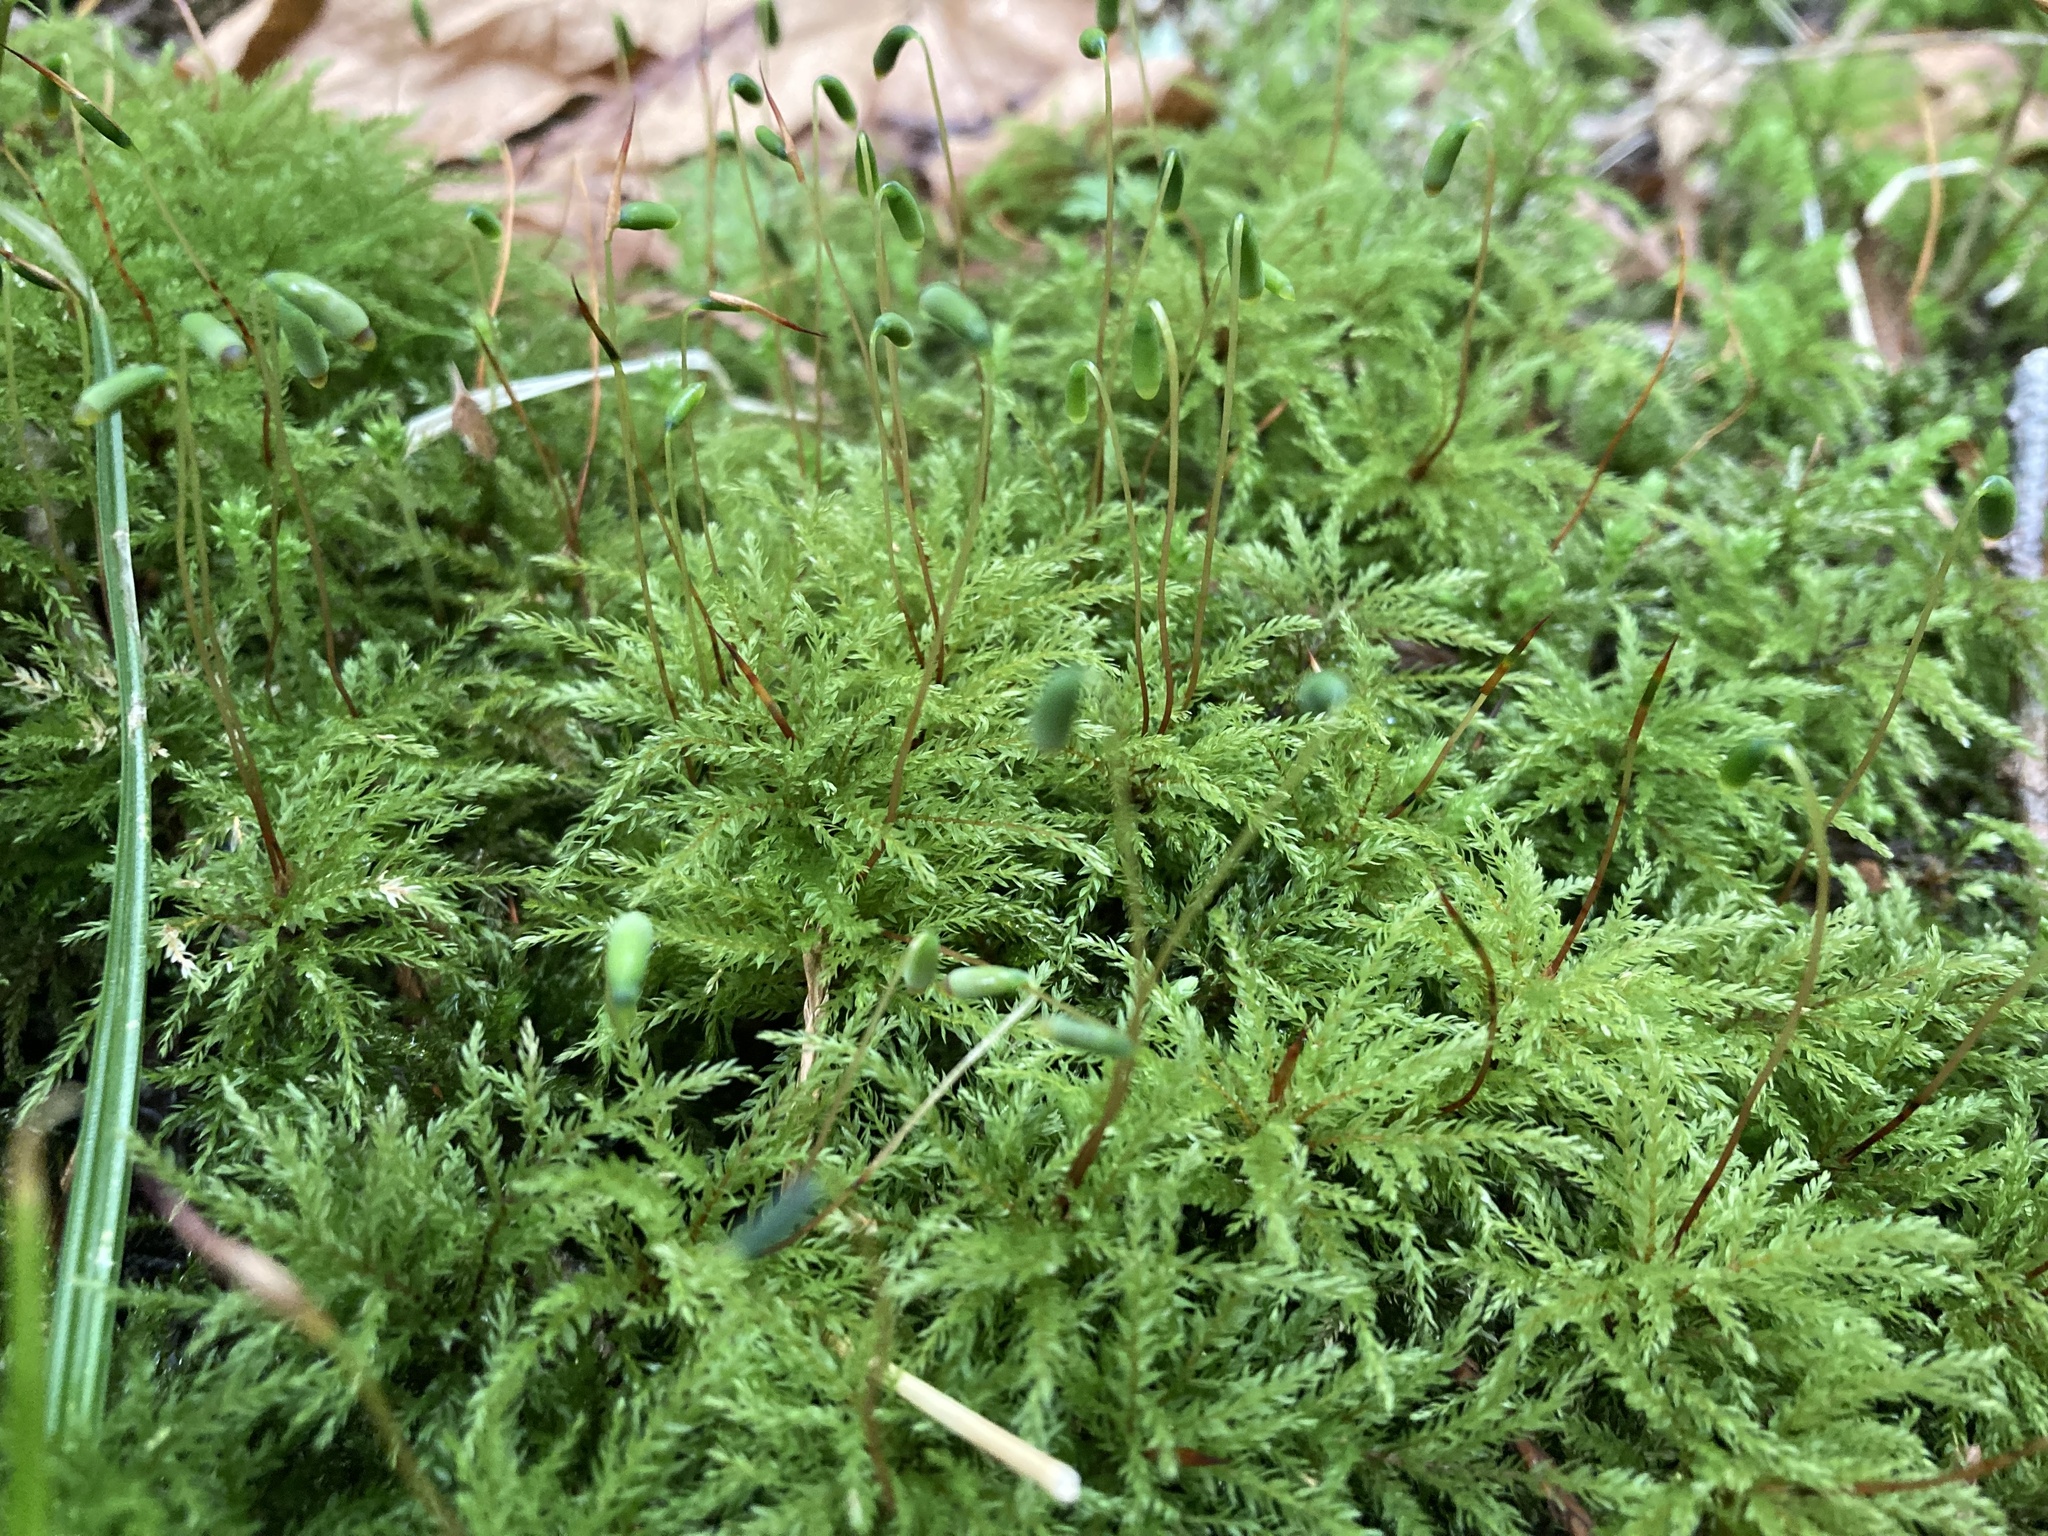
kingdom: Plantae
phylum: Bryophyta
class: Bryopsida
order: Bryales
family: Mniaceae
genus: Leucolepis
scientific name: Leucolepis acanthoneura
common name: Leucolepis umbrella moss
